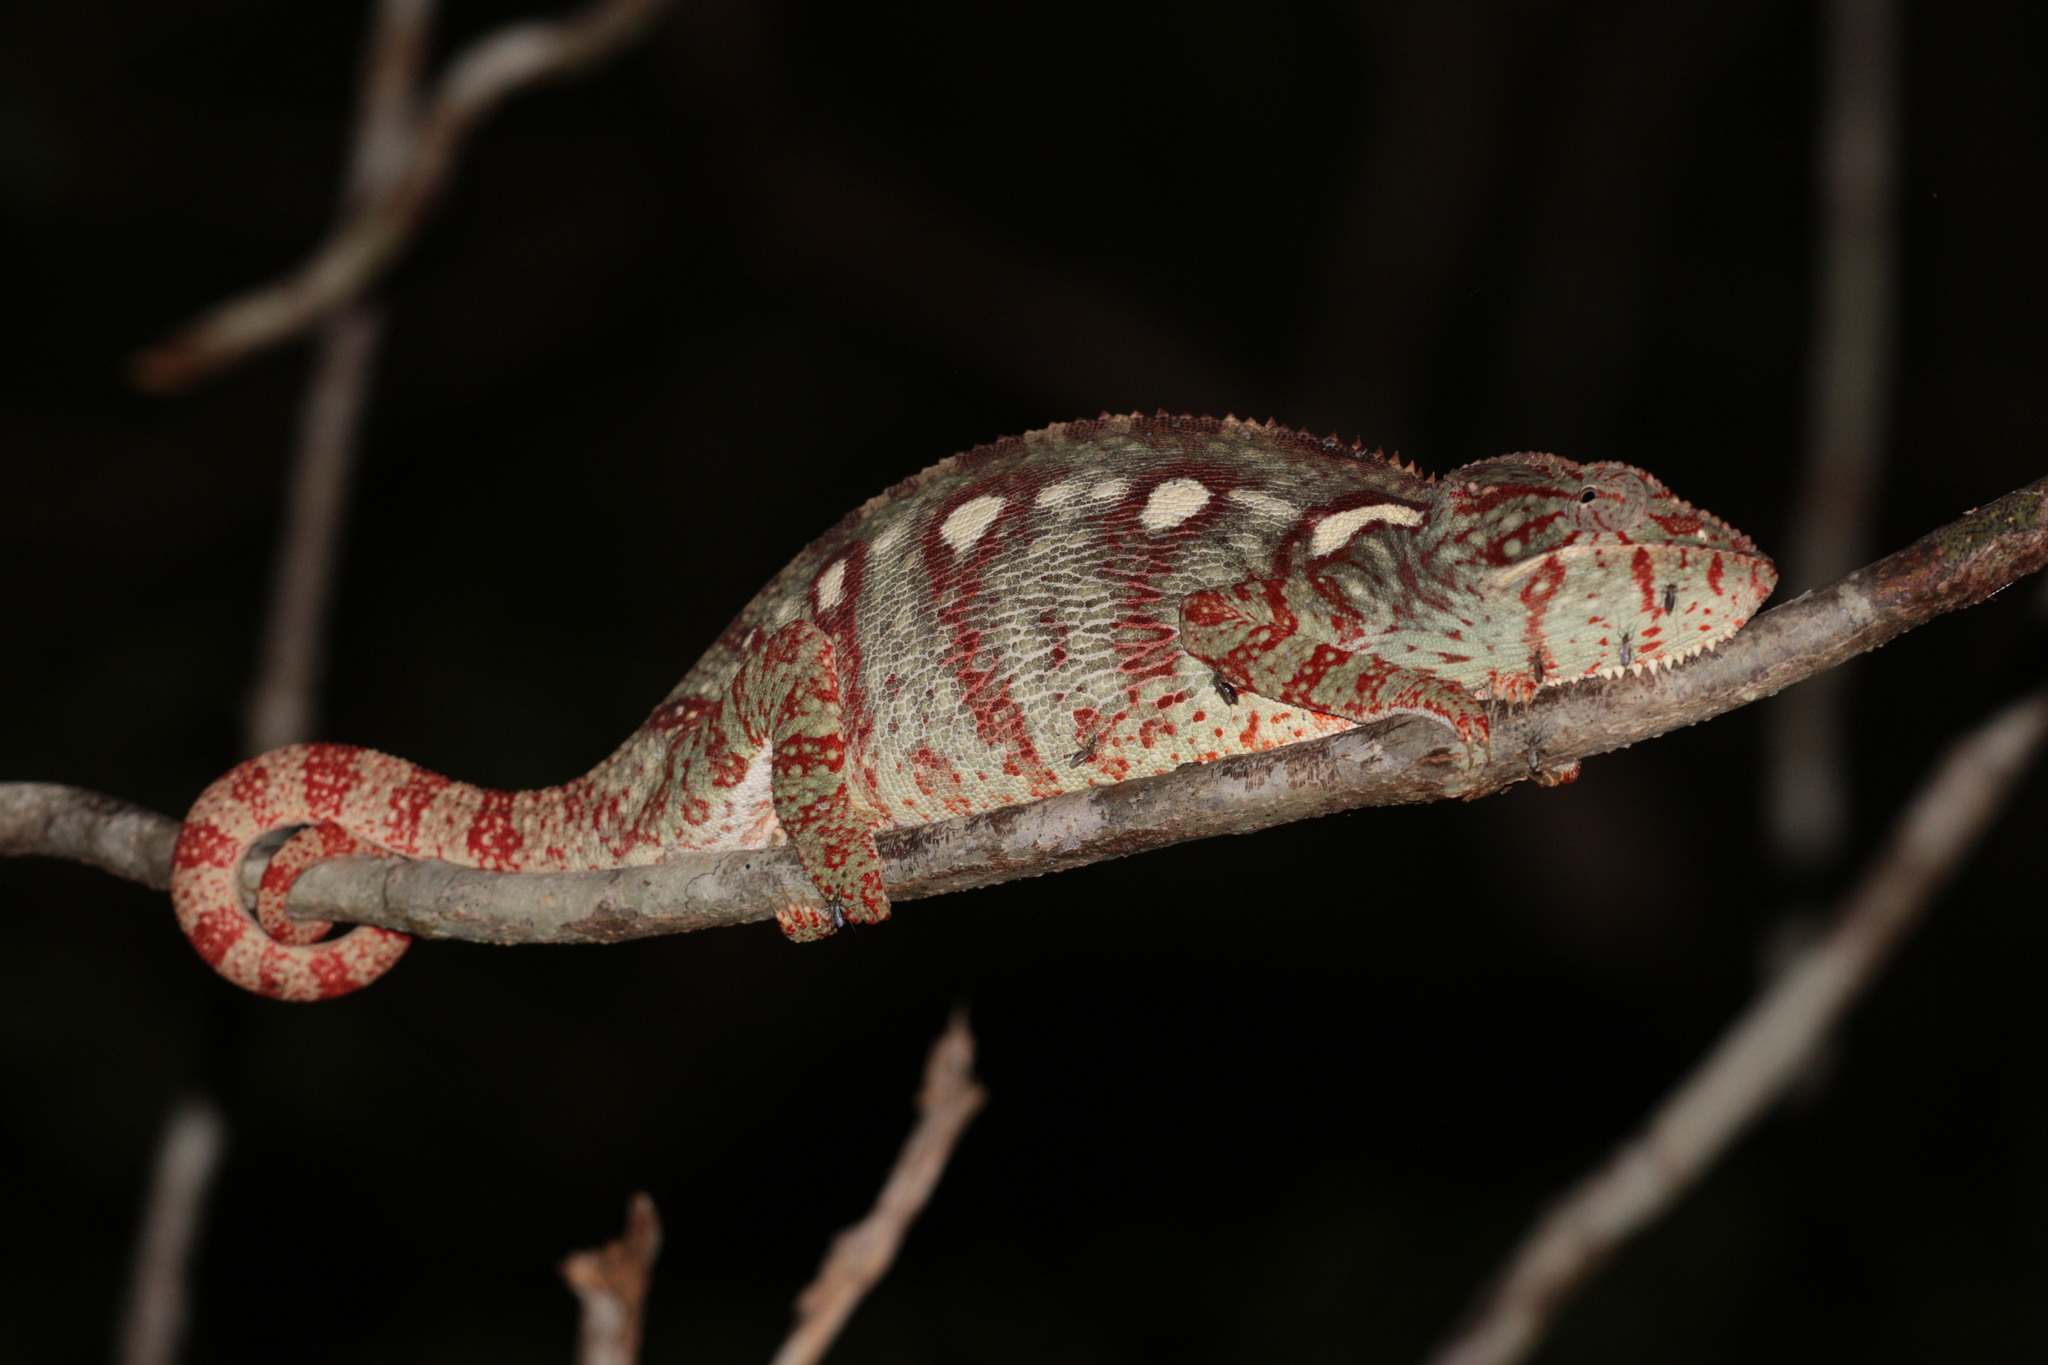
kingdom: Animalia
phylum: Chordata
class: Squamata
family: Chamaeleonidae
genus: Furcifer
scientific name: Furcifer oustaleti
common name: Oustalet's chameleon
